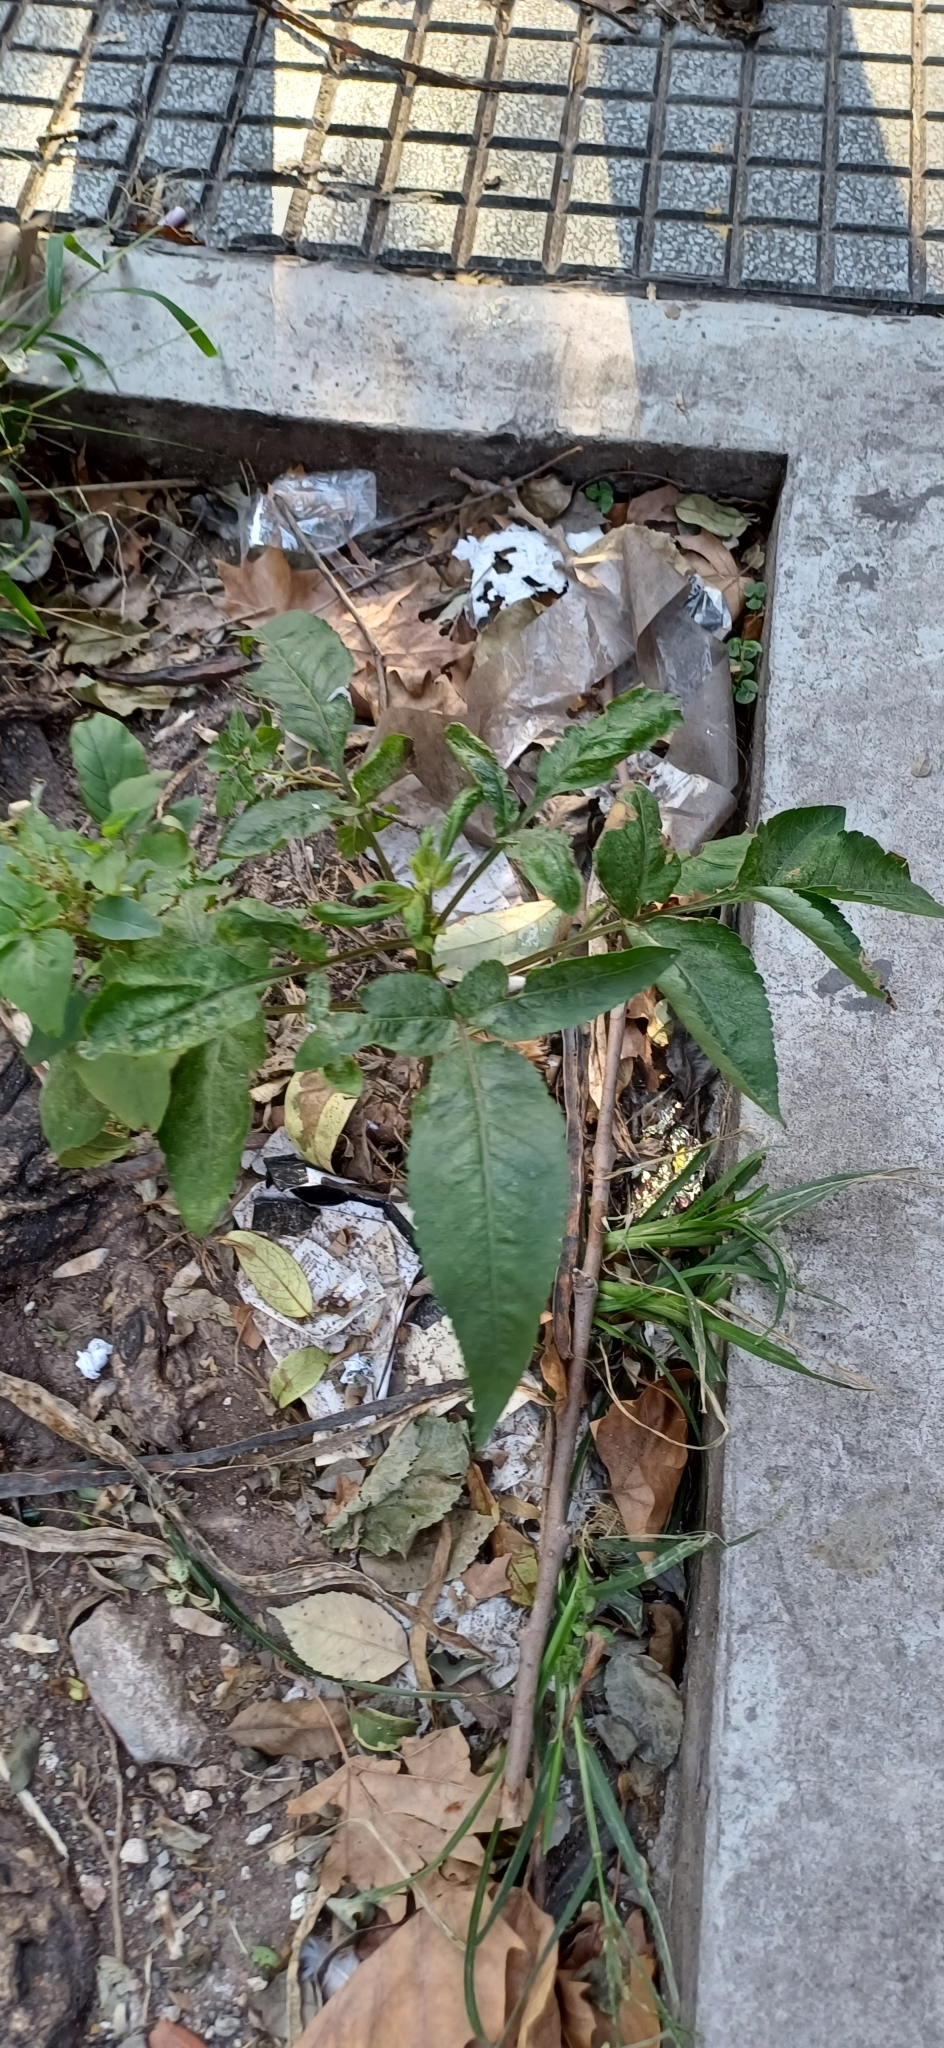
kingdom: Plantae
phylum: Tracheophyta
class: Magnoliopsida
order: Asterales
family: Asteraceae
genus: Bidens
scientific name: Bidens pilosa
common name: Black-jack
